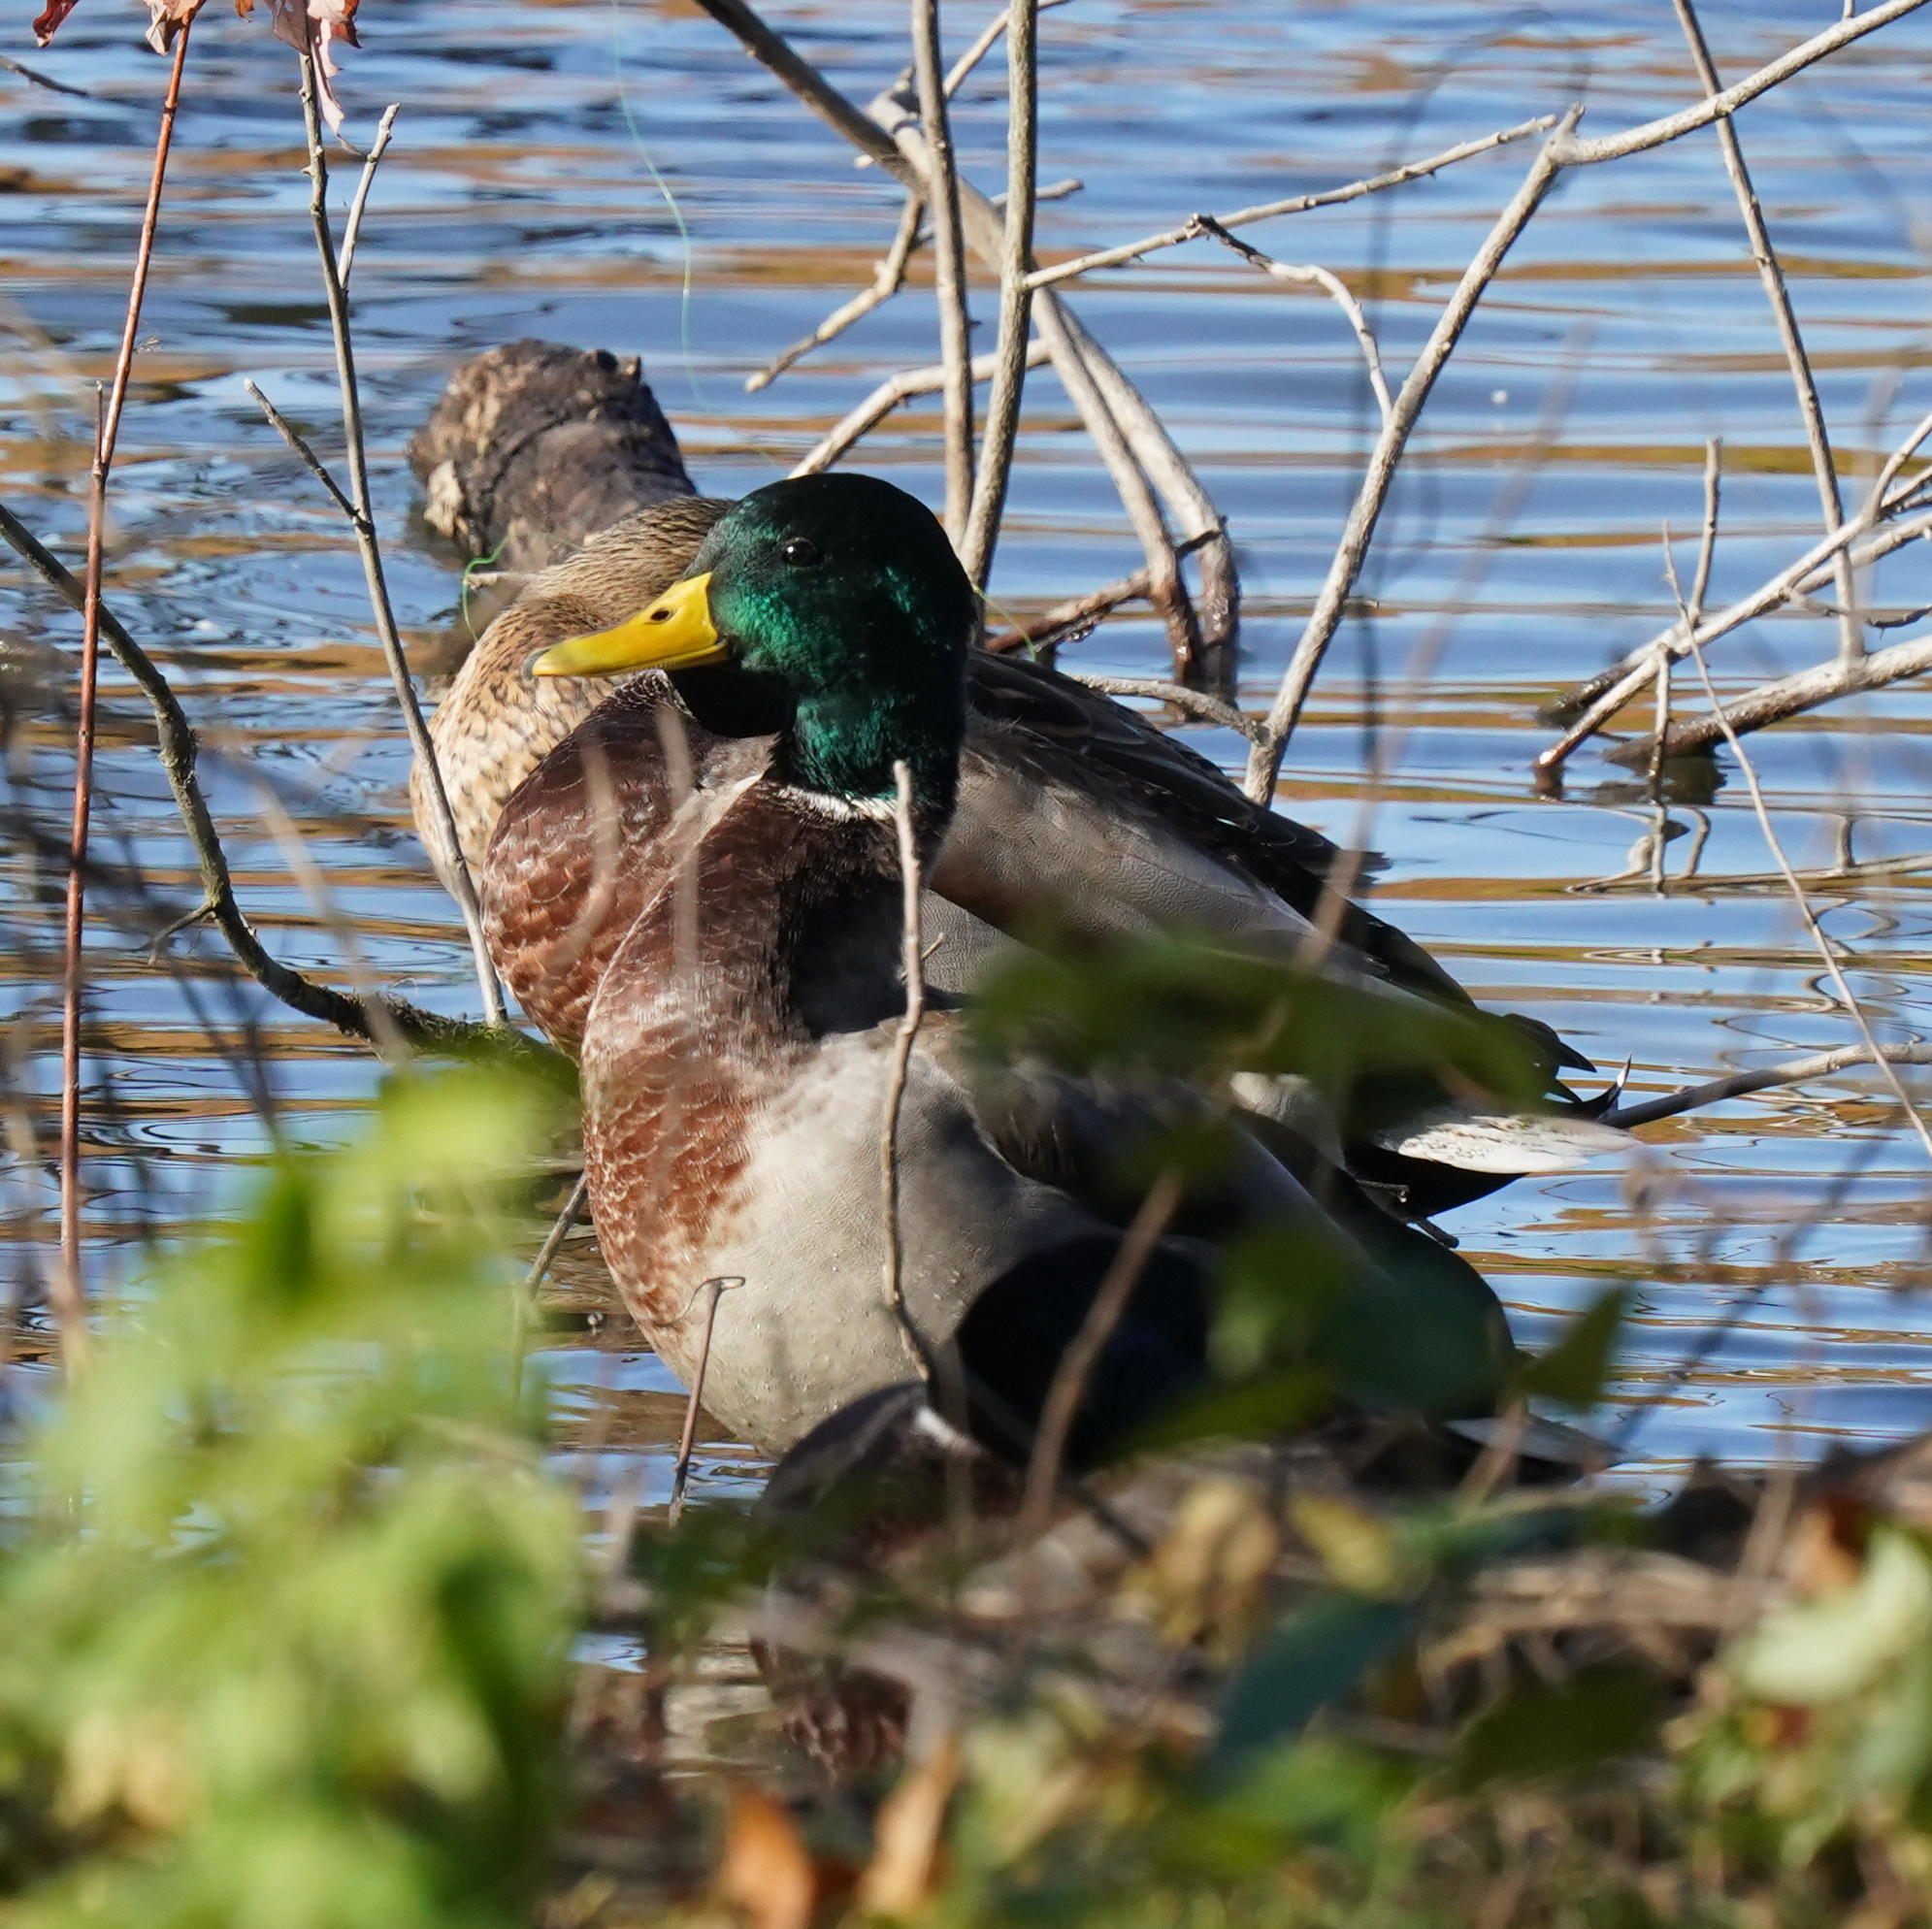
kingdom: Animalia
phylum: Chordata
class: Aves
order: Anseriformes
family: Anatidae
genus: Anas
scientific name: Anas platyrhynchos
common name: Mallard
